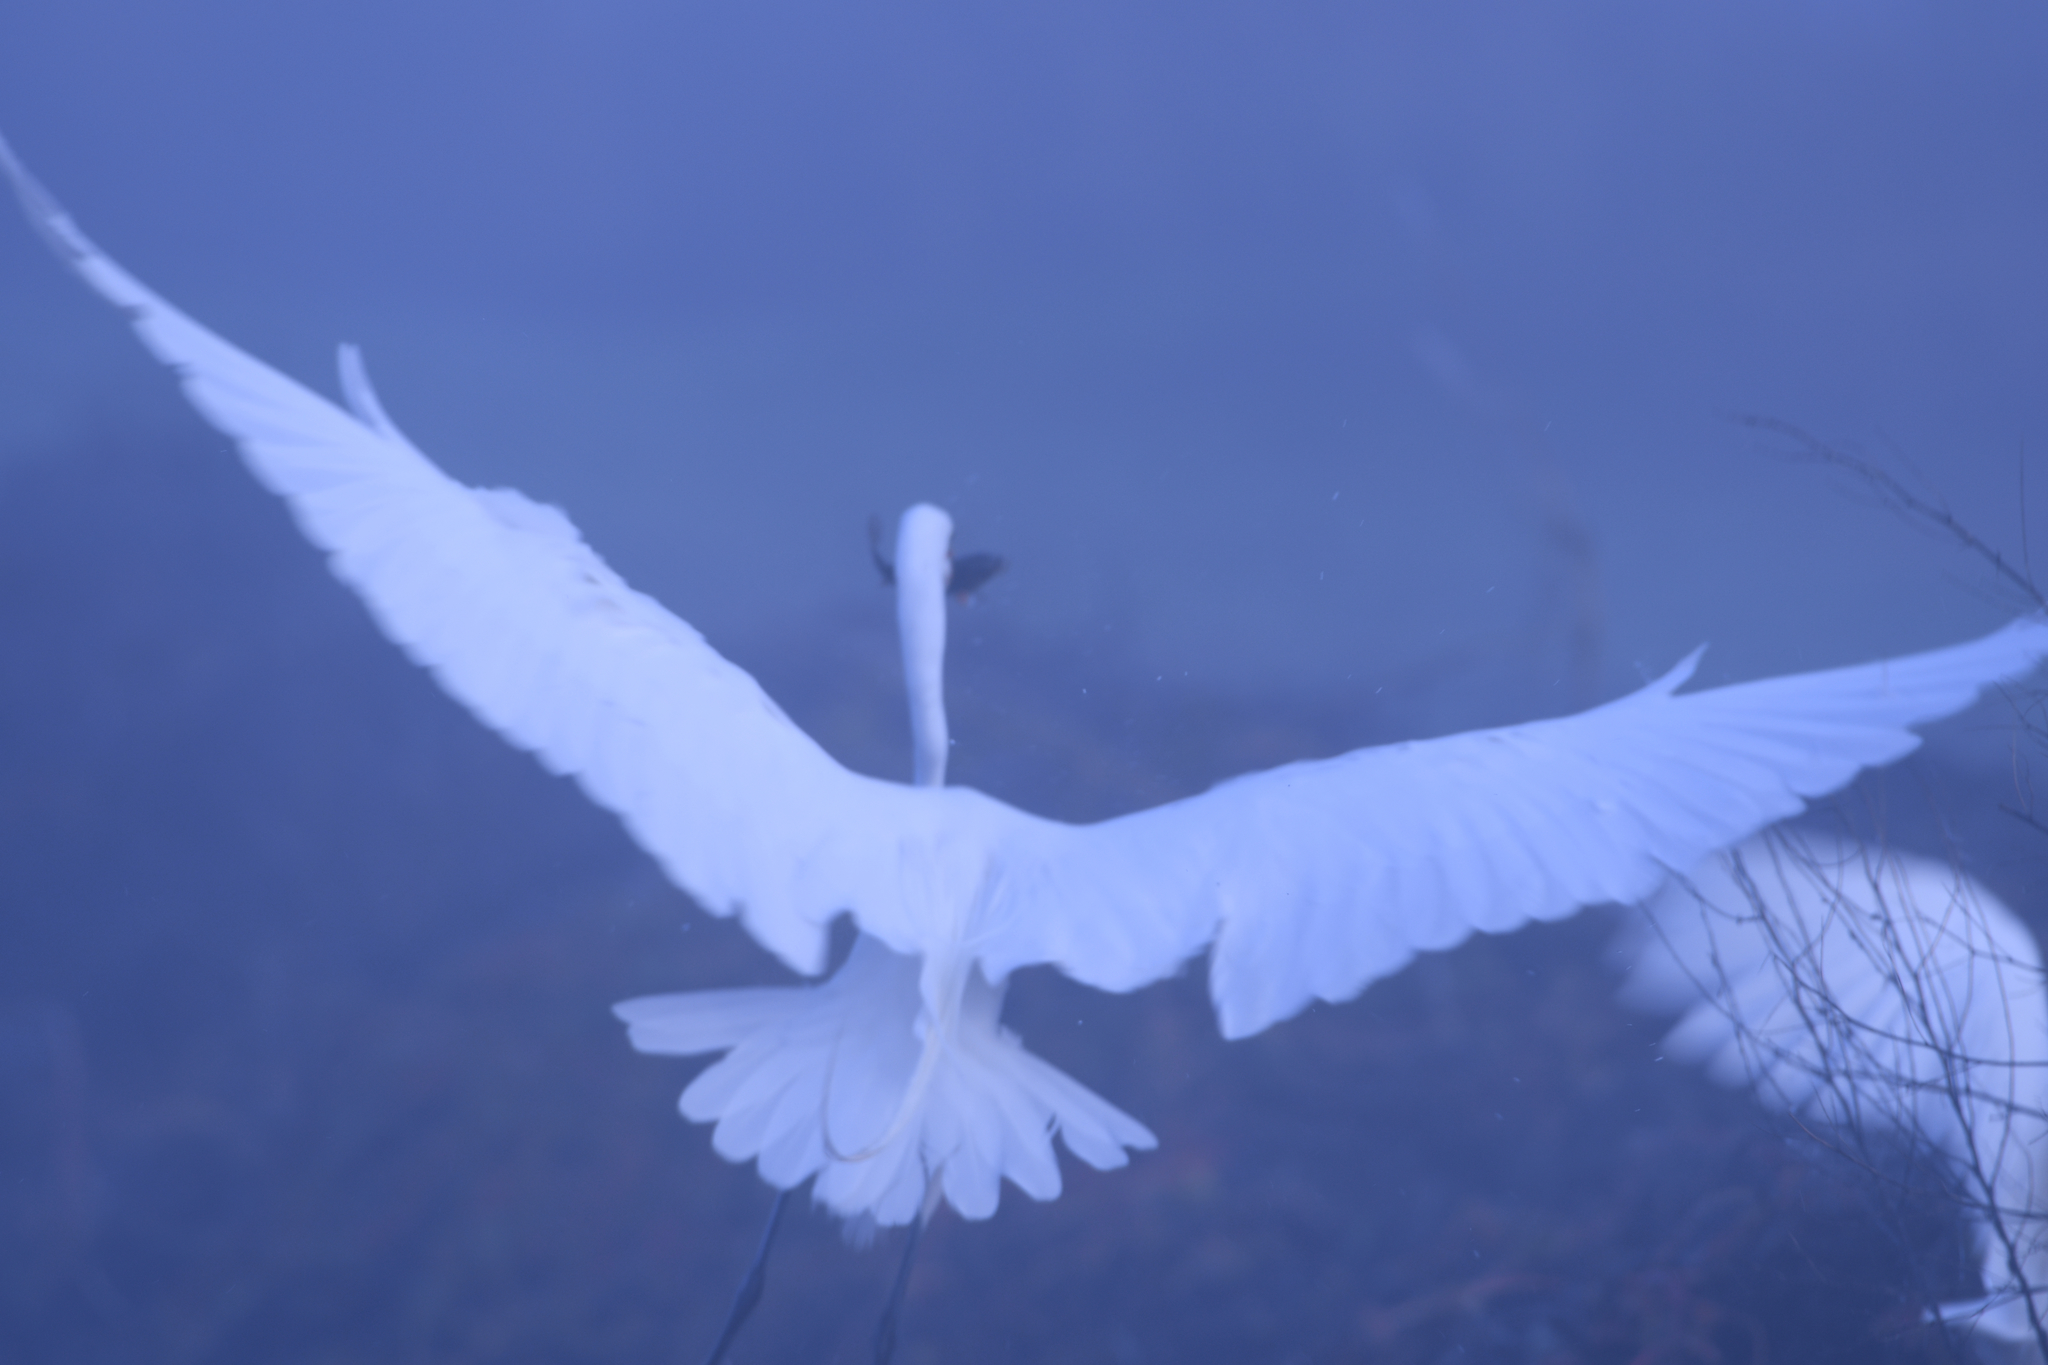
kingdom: Animalia
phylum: Chordata
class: Aves
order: Pelecaniformes
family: Ardeidae
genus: Ardea
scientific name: Ardea alba
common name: Great egret
